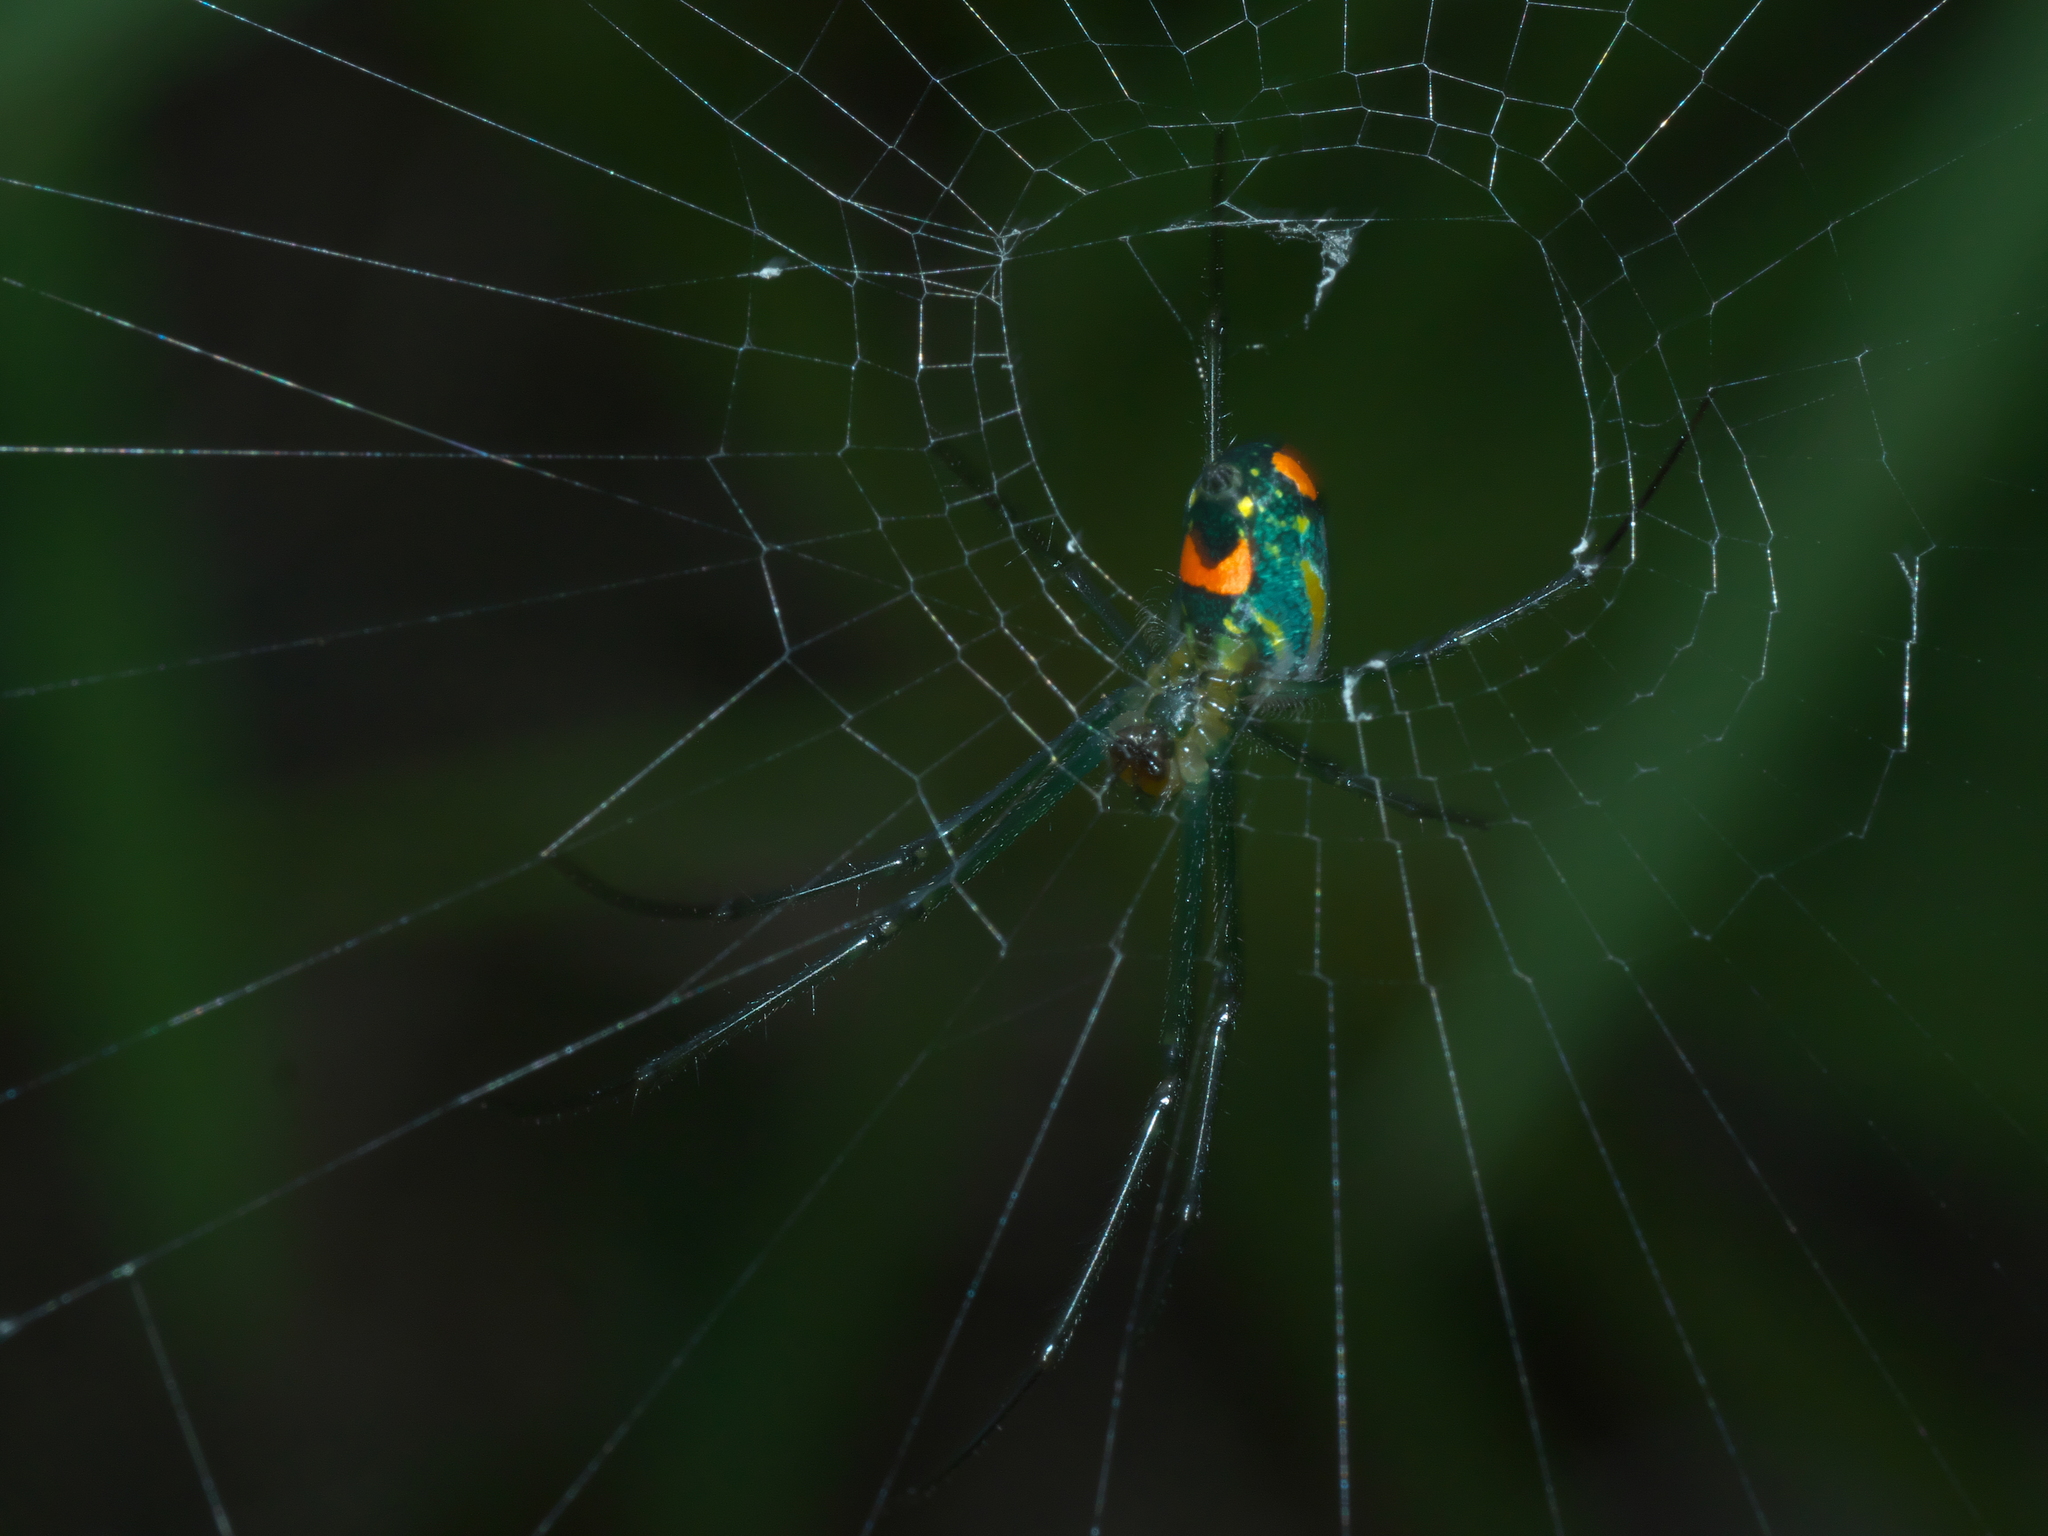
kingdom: Animalia
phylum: Arthropoda
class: Arachnida
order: Araneae
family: Tetragnathidae
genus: Leucauge
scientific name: Leucauge argyrobapta
